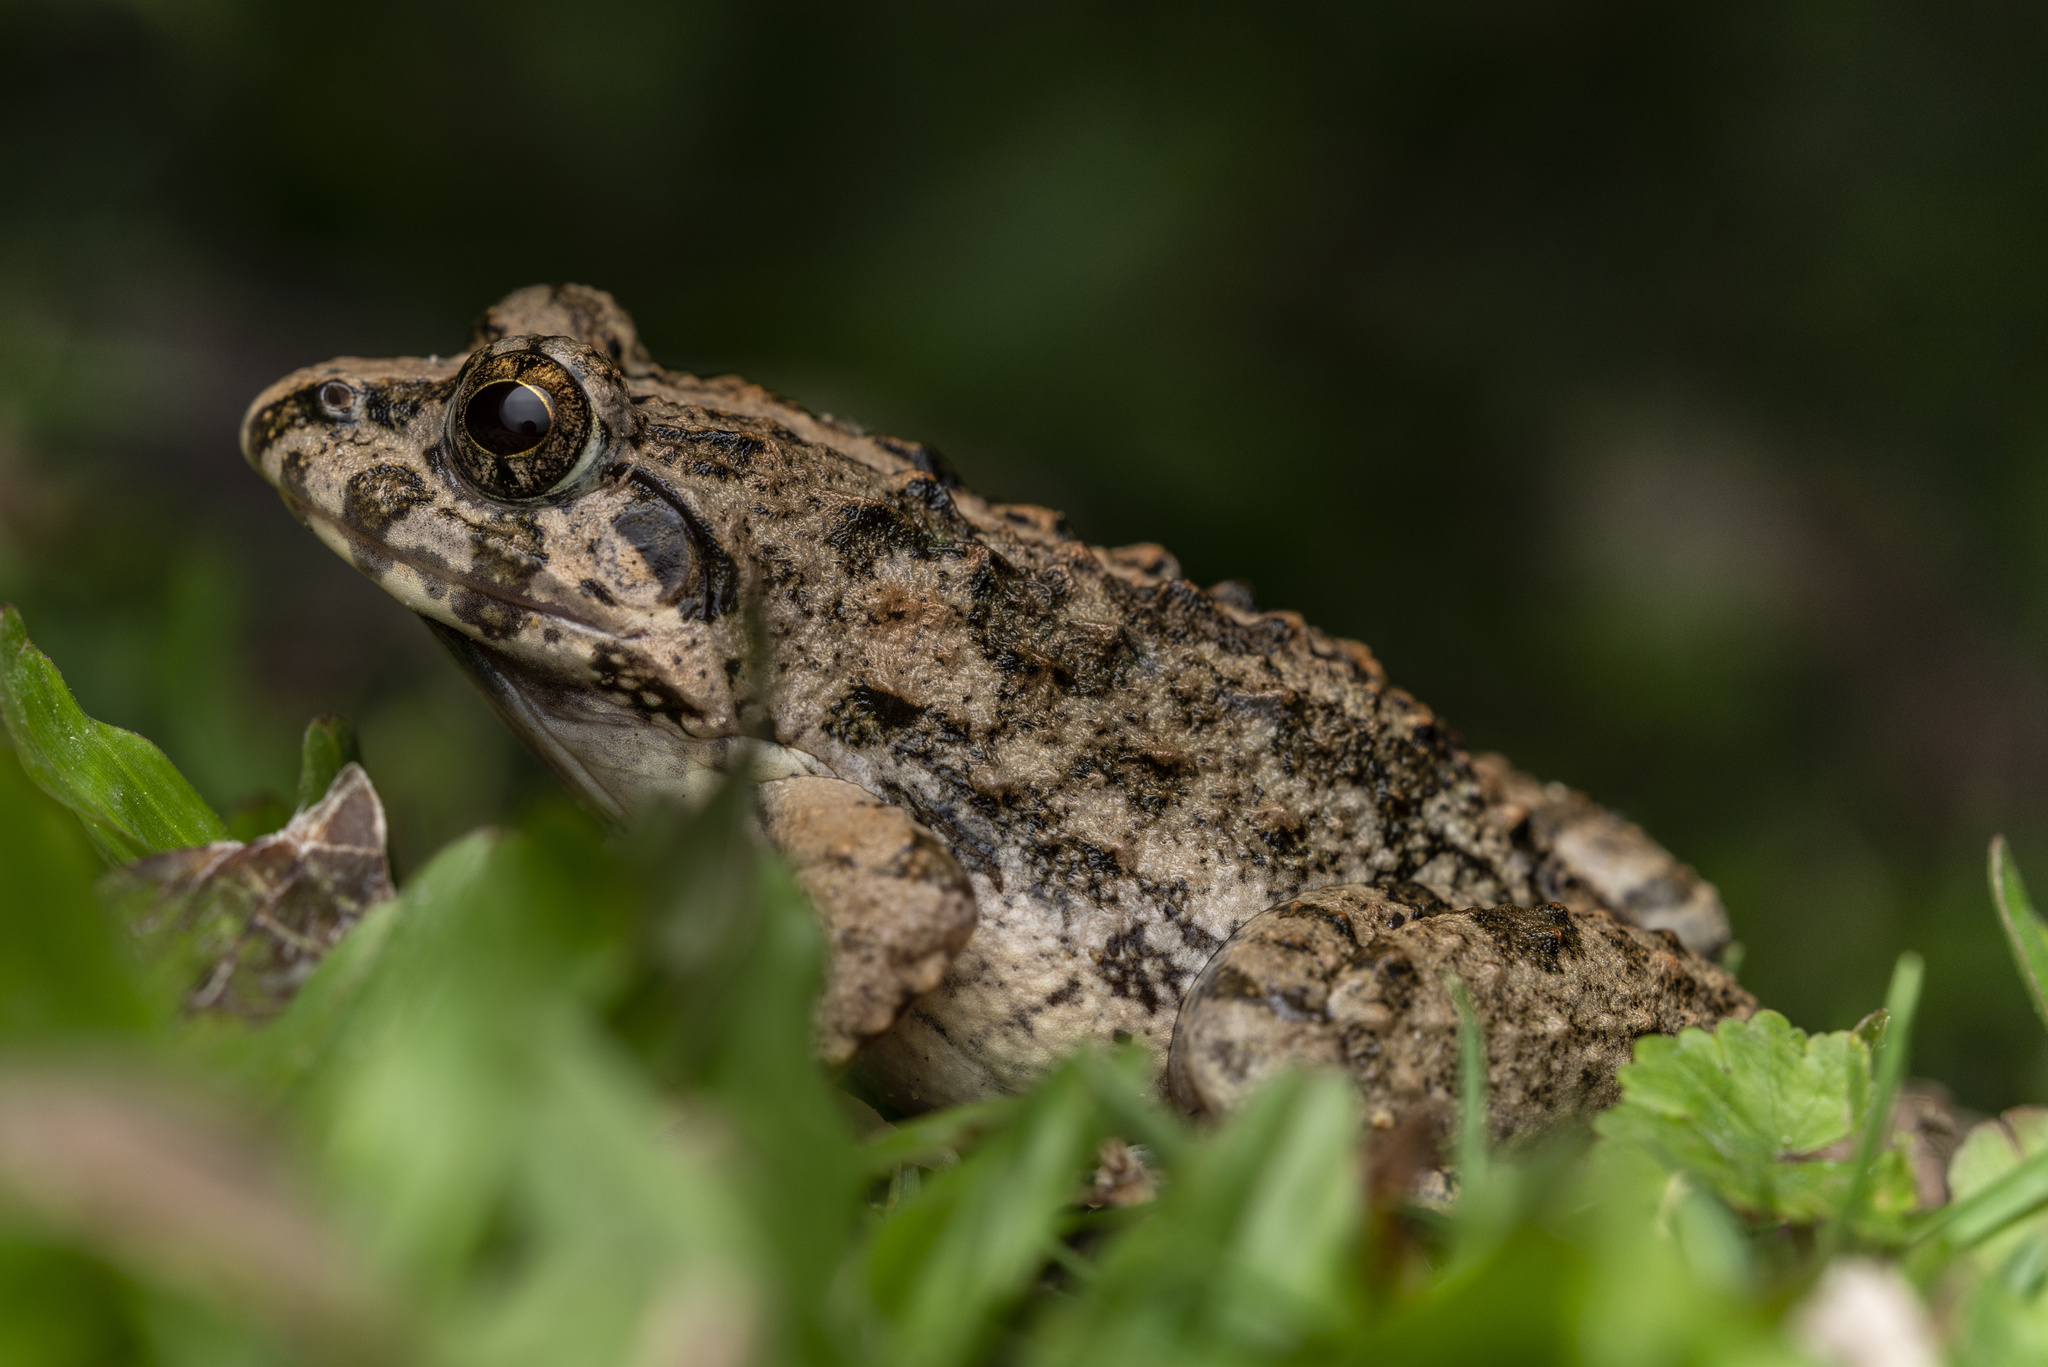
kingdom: Animalia
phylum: Chordata
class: Amphibia
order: Anura
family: Dicroglossidae
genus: Fejervarya
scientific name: Fejervarya multistriata
